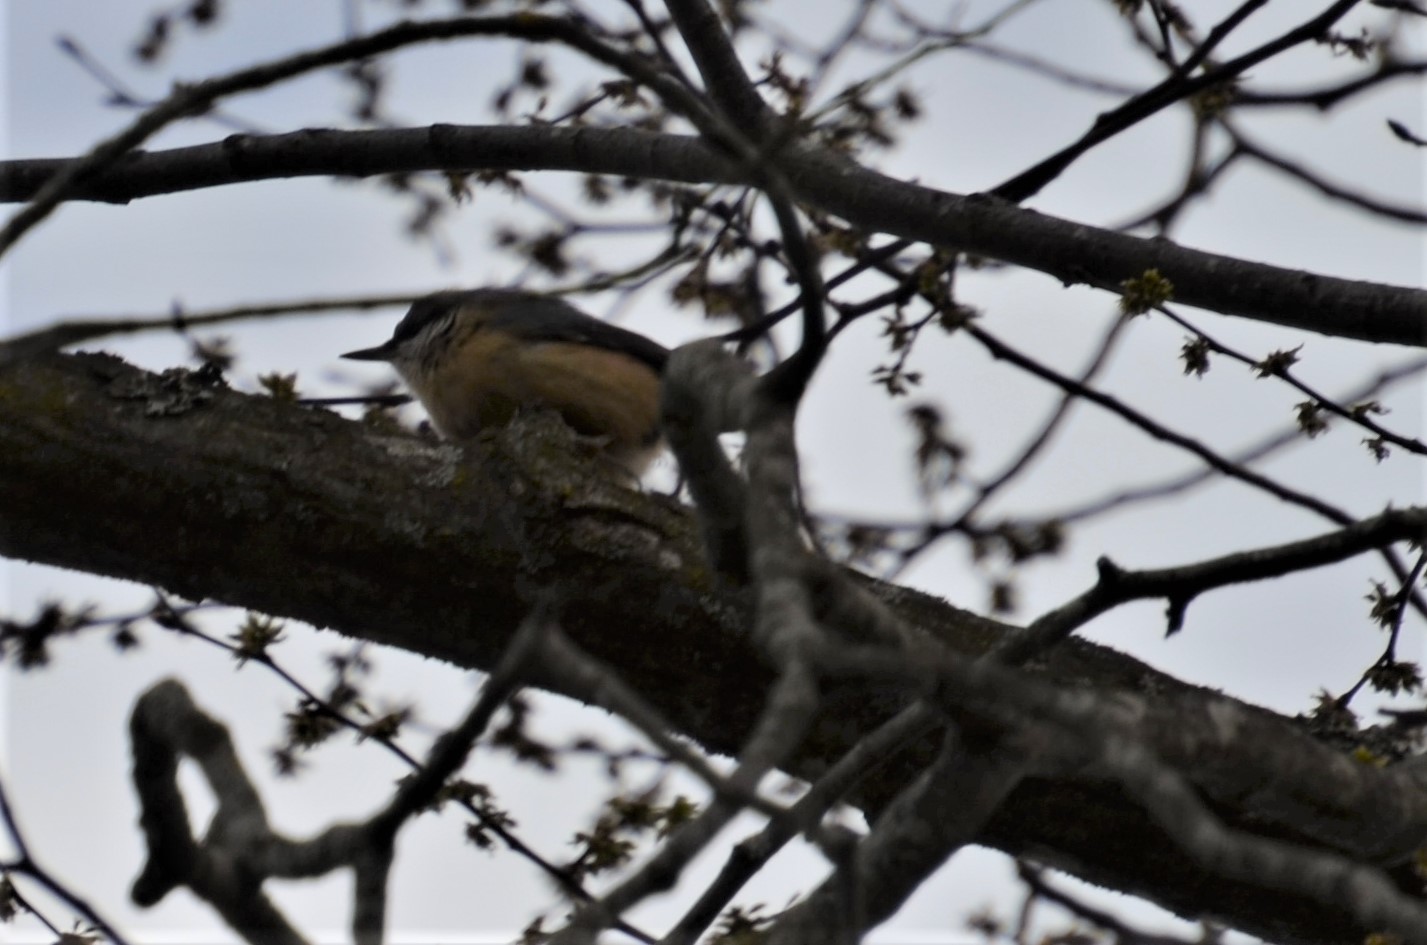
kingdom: Animalia
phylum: Chordata
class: Aves
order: Passeriformes
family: Sittidae
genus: Sitta
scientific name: Sitta europaea
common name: Eurasian nuthatch
